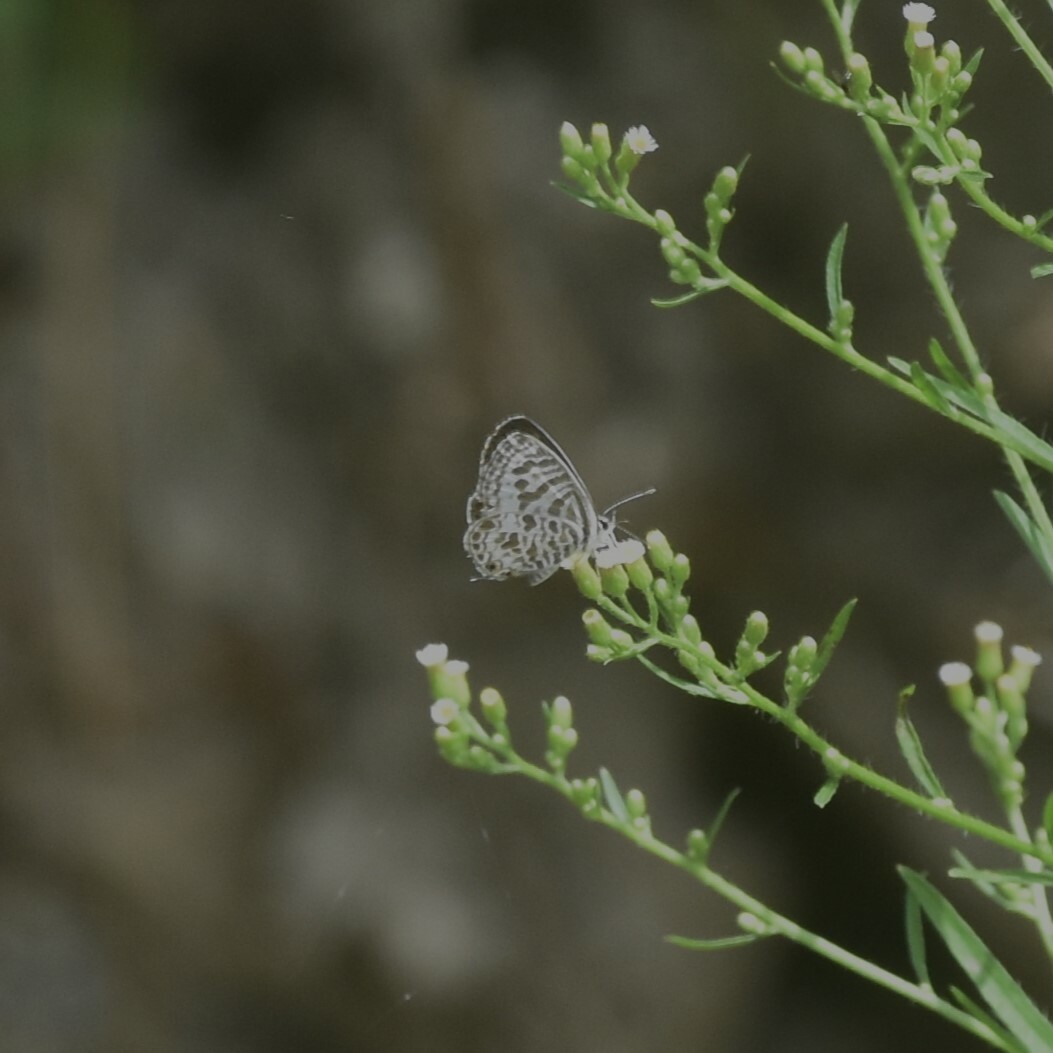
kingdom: Animalia
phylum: Arthropoda
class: Insecta
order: Lepidoptera
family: Lycaenidae
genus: Leptotes
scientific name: Leptotes plinius
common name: Zebra blue
